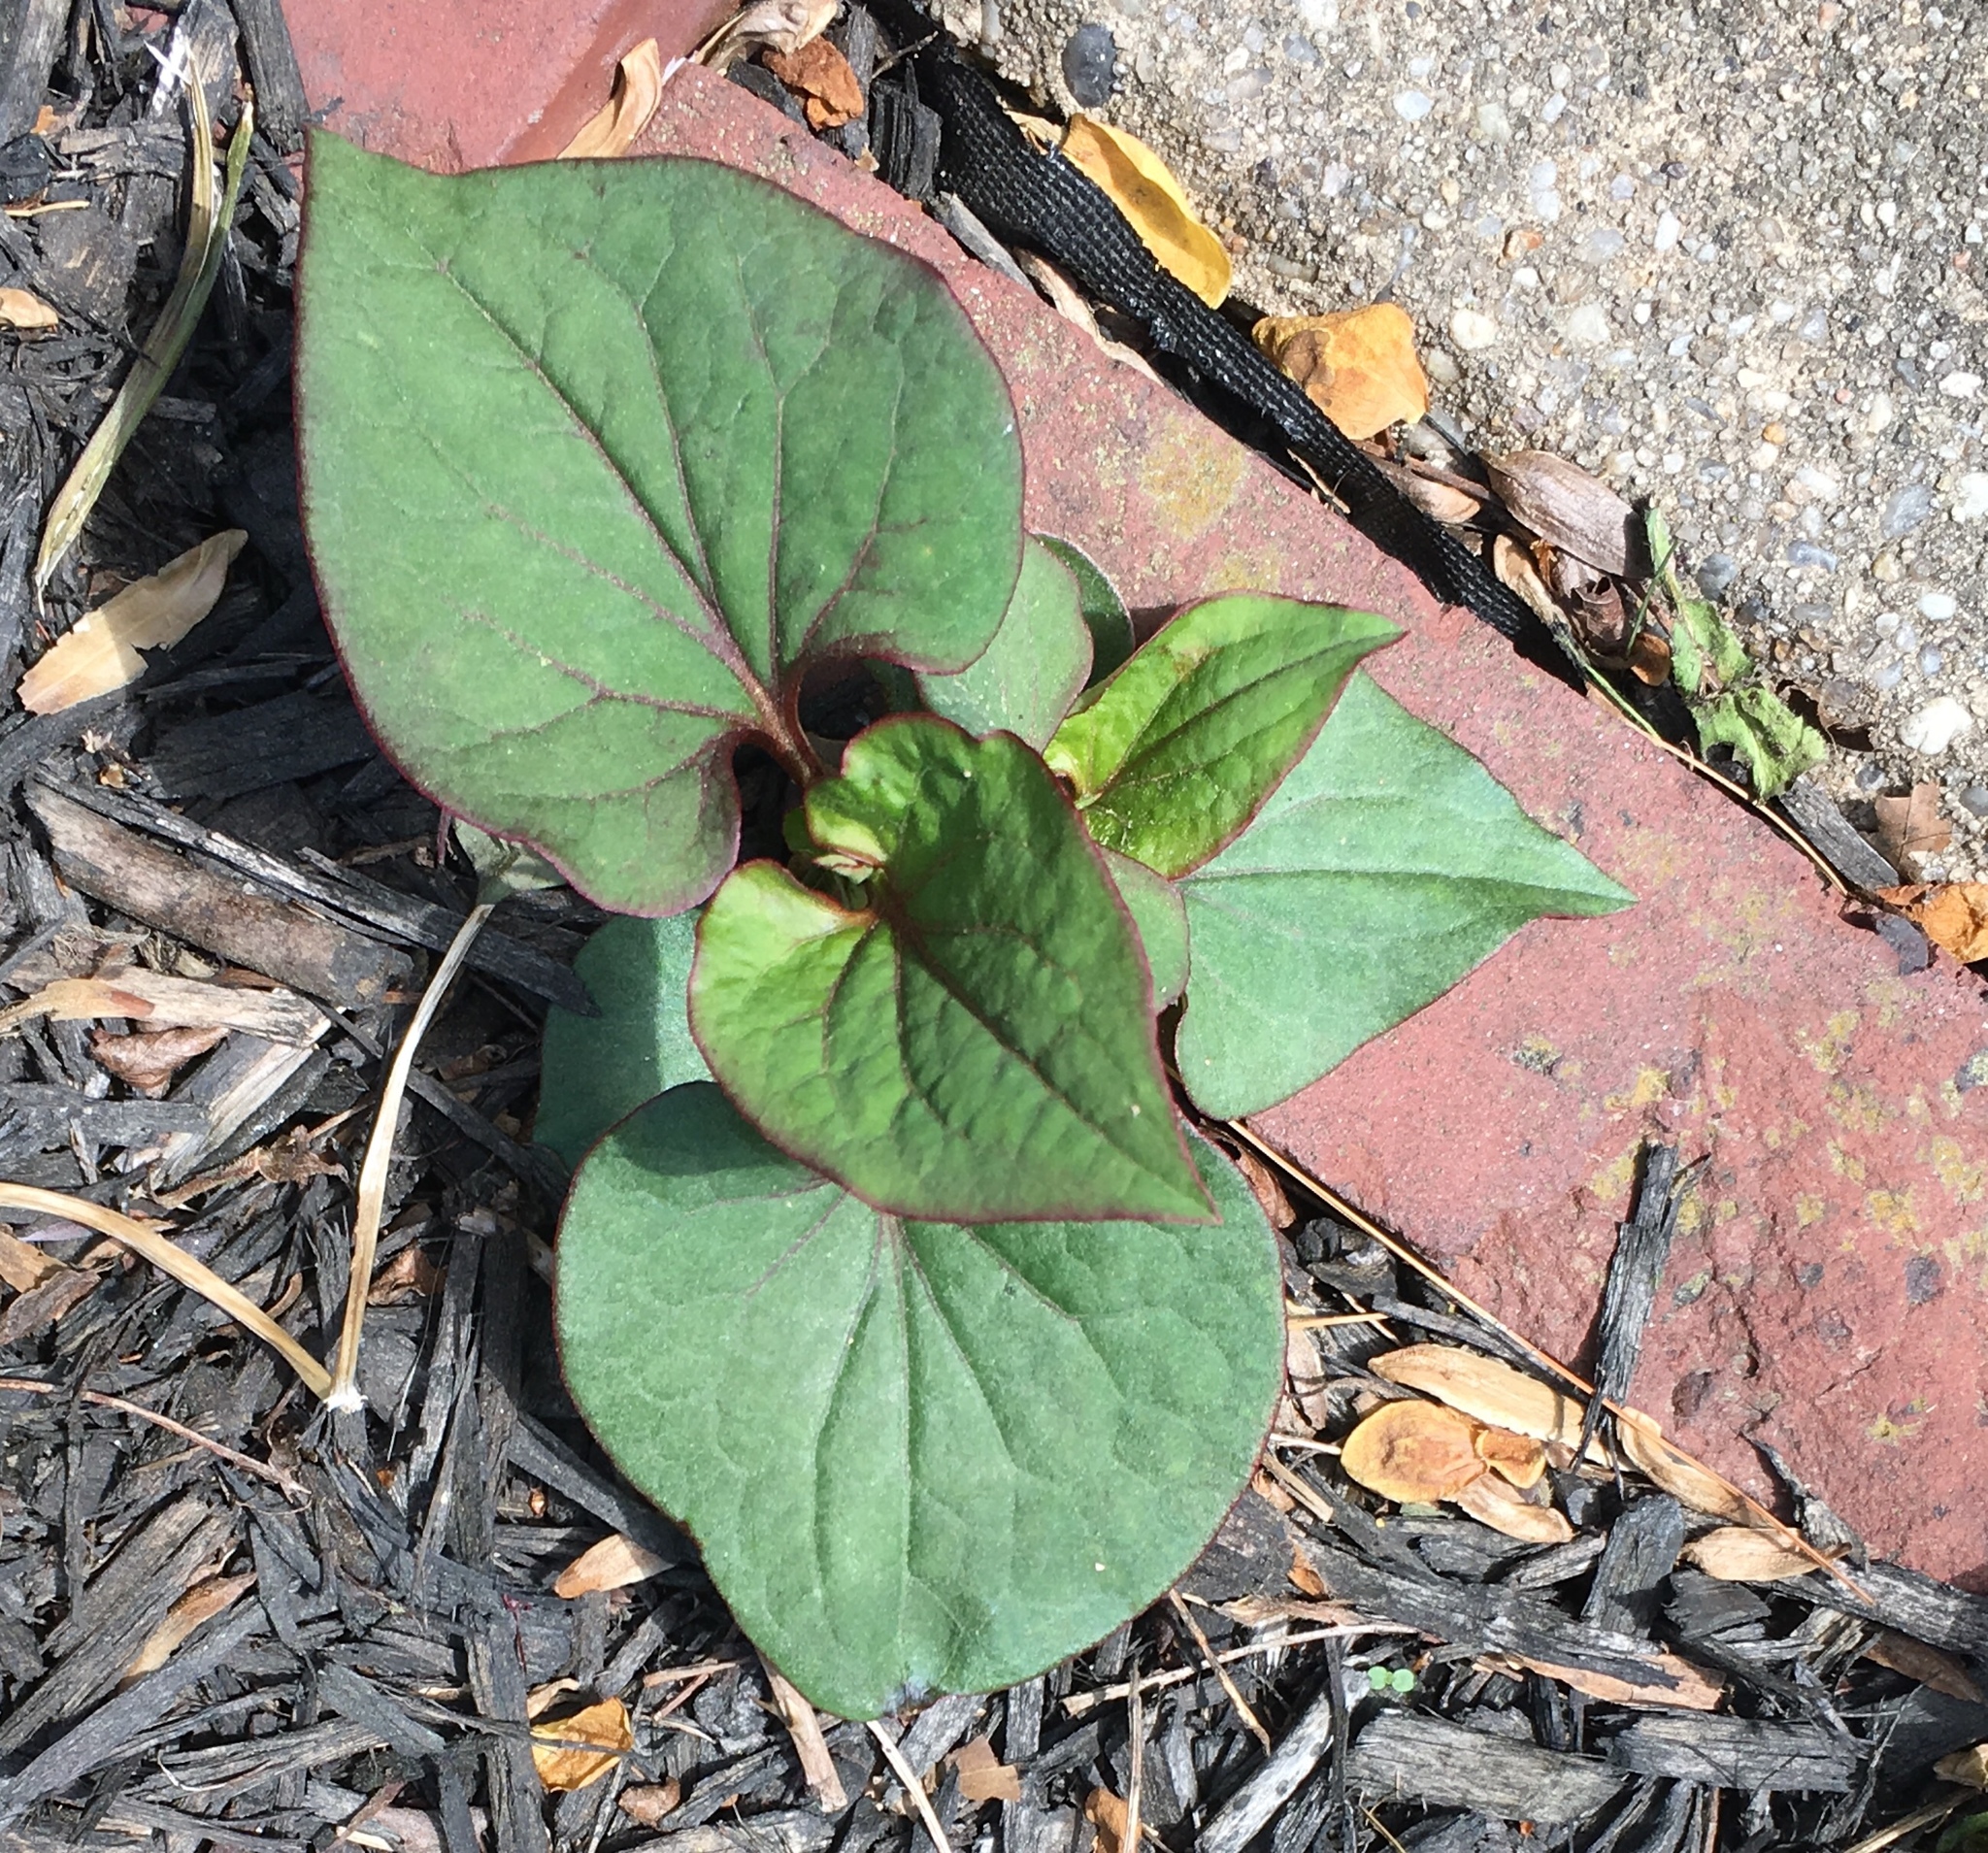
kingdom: Plantae
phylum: Tracheophyta
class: Magnoliopsida
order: Piperales
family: Saururaceae
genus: Houttuynia
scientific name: Houttuynia cordata
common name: Chameleon
